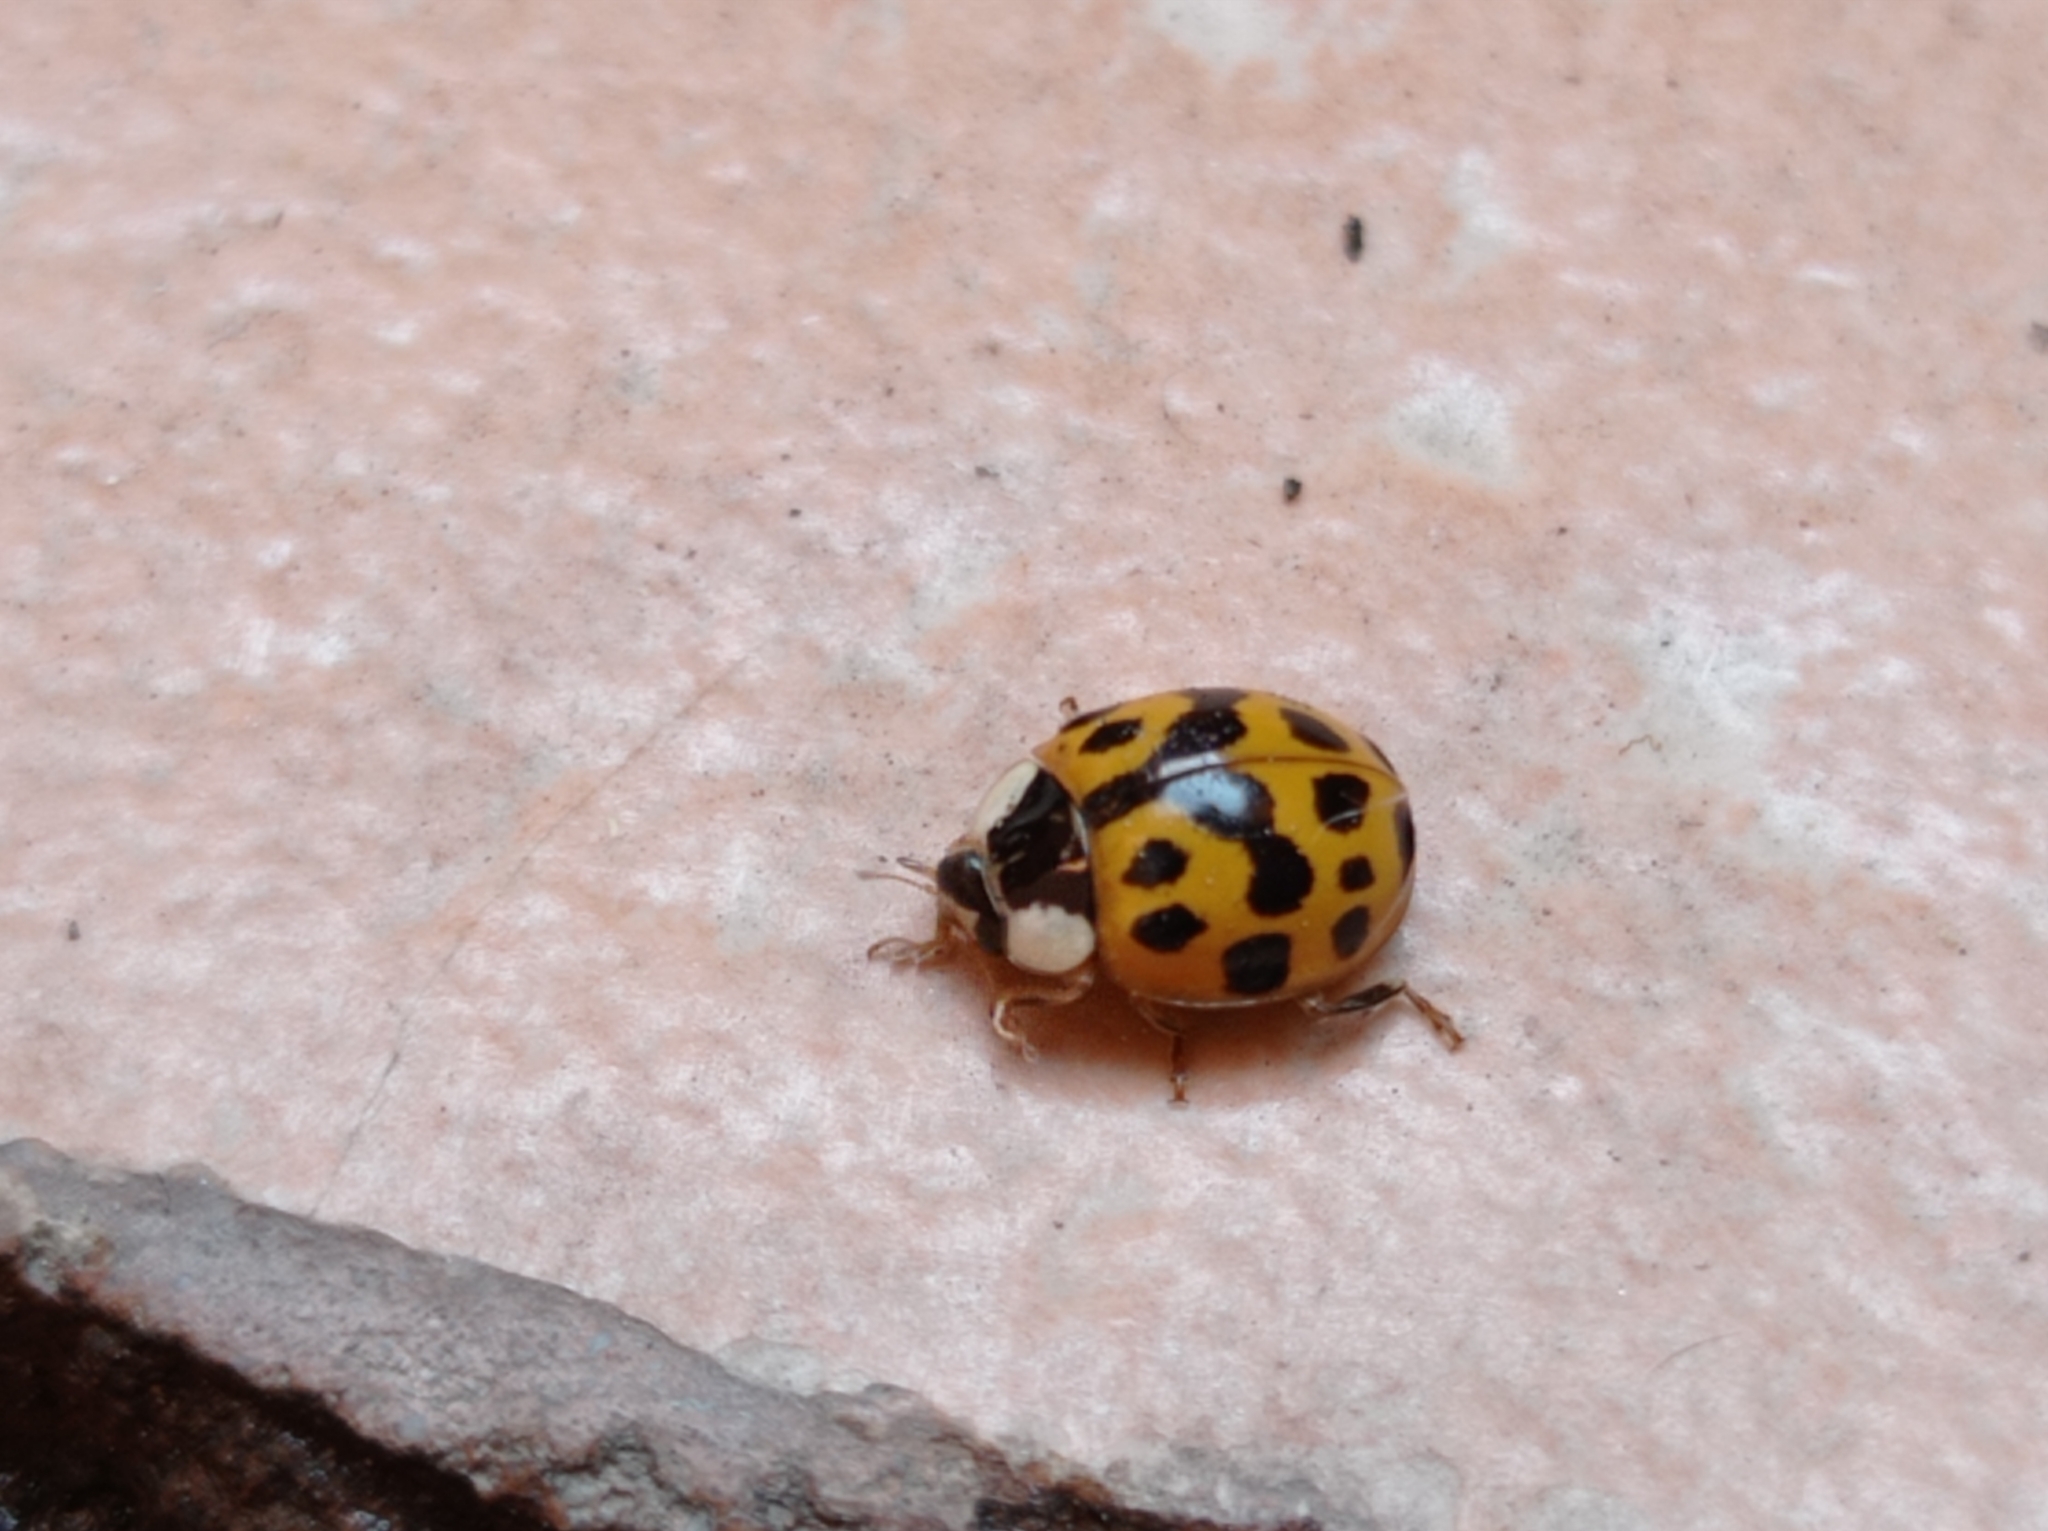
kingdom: Animalia
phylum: Arthropoda
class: Insecta
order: Coleoptera
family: Coccinellidae
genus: Harmonia
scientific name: Harmonia axyridis
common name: Harlequin ladybird
